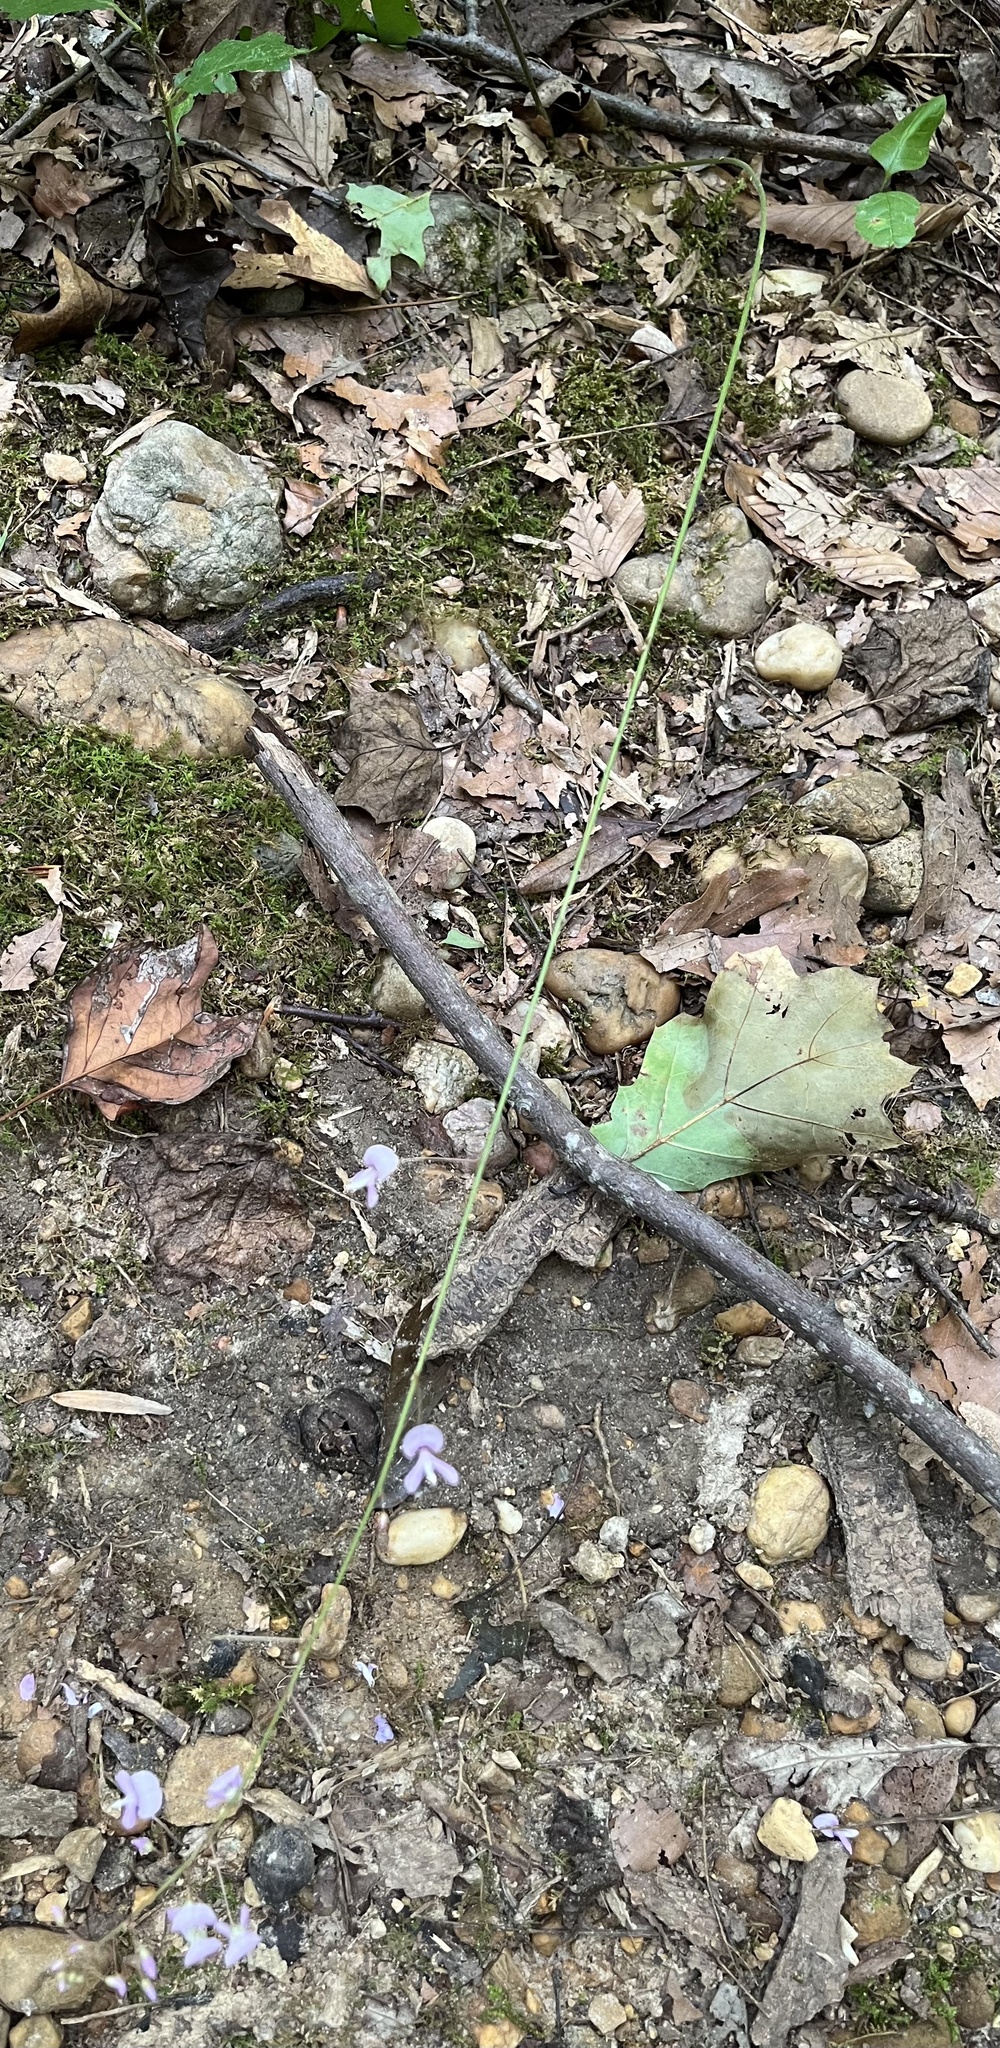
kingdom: Plantae
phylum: Tracheophyta
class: Magnoliopsida
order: Fabales
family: Fabaceae
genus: Hylodesmum
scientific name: Hylodesmum nudiflorum
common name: Bare-stemmed tick-trefoil
